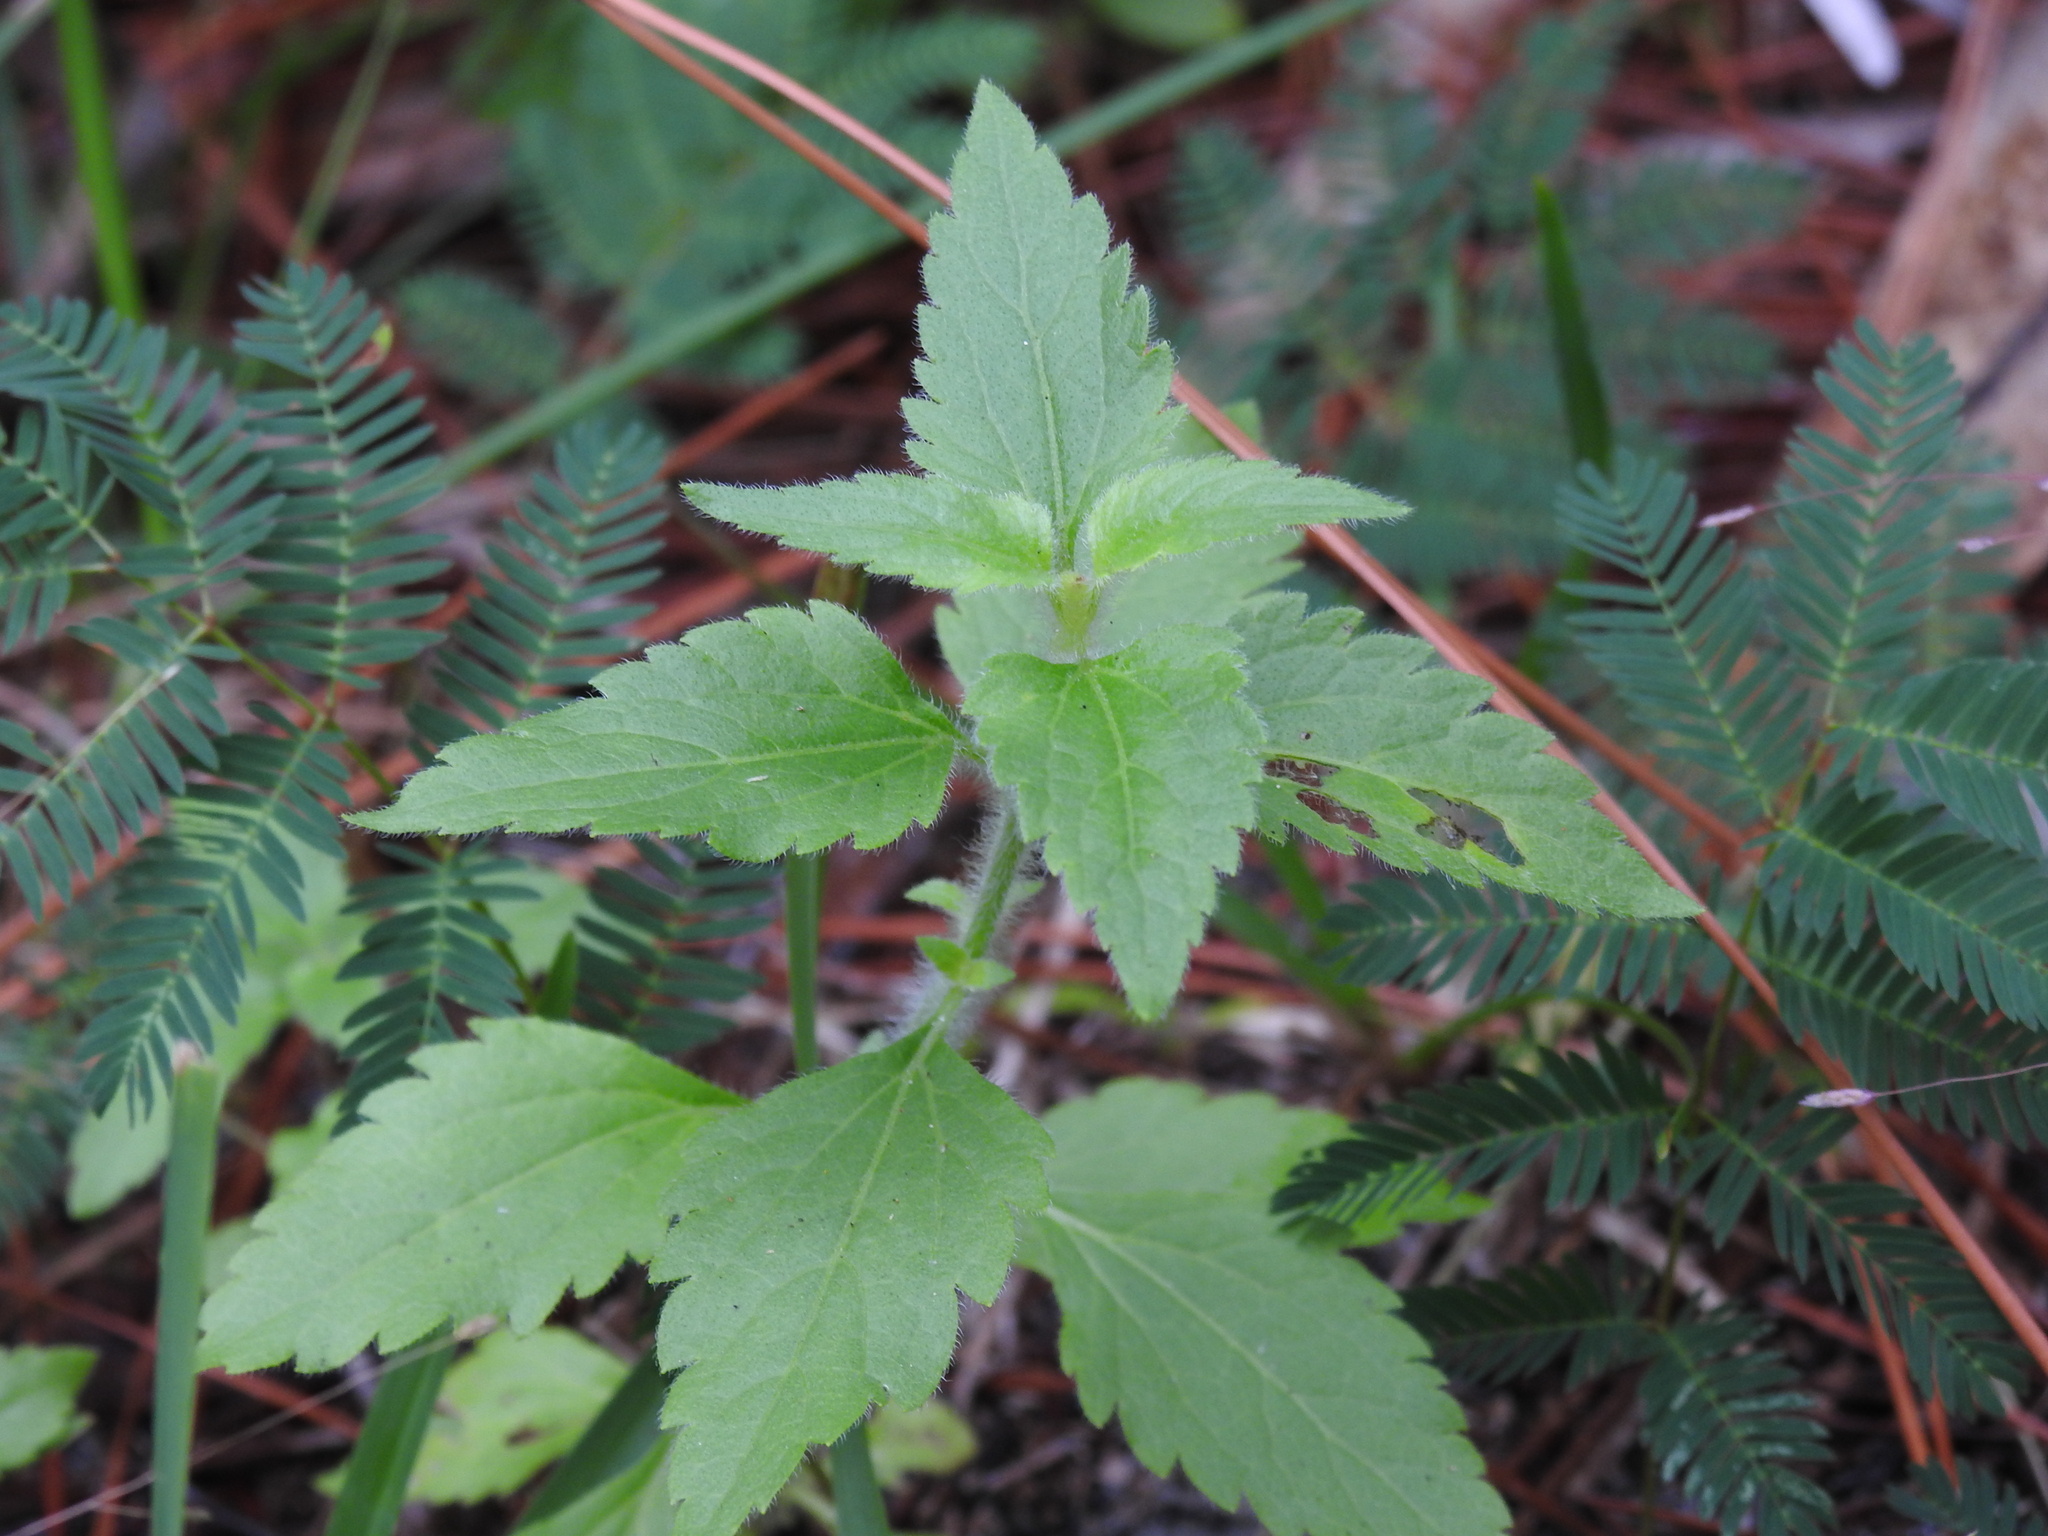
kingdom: Plantae
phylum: Tracheophyta
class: Magnoliopsida
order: Asterales
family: Asteraceae
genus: Praxelis
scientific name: Praxelis clematidea
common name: Praxelis
